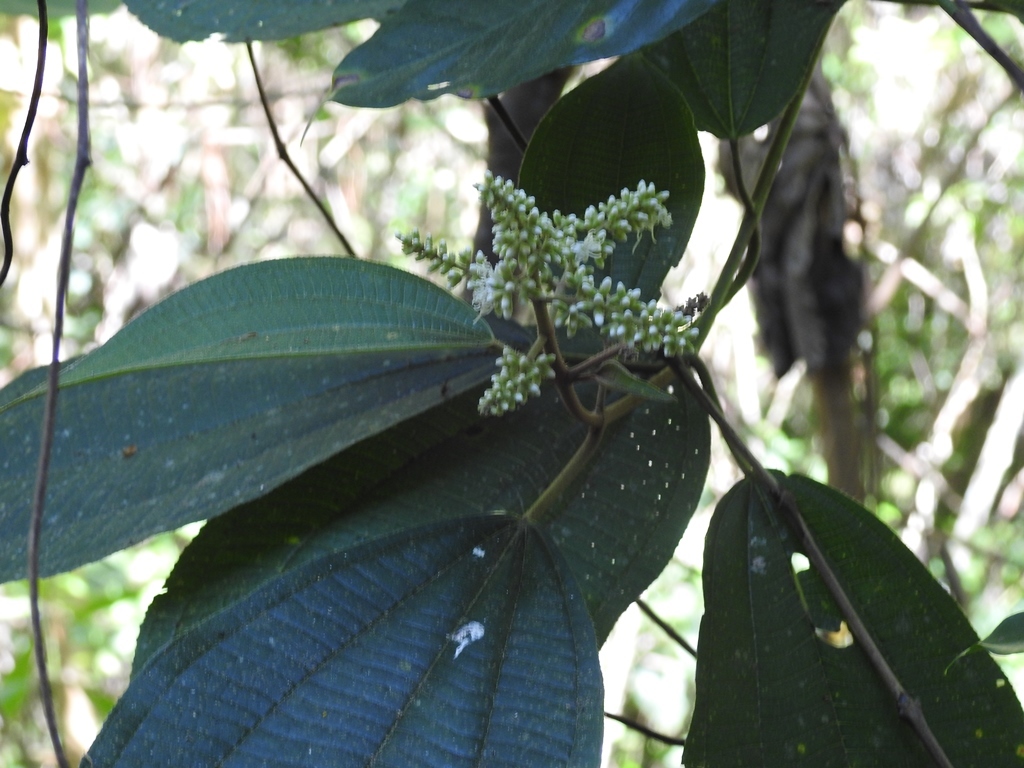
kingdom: Plantae
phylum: Tracheophyta
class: Magnoliopsida
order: Myrtales
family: Melastomataceae
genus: Miconia
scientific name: Miconia desmantha
